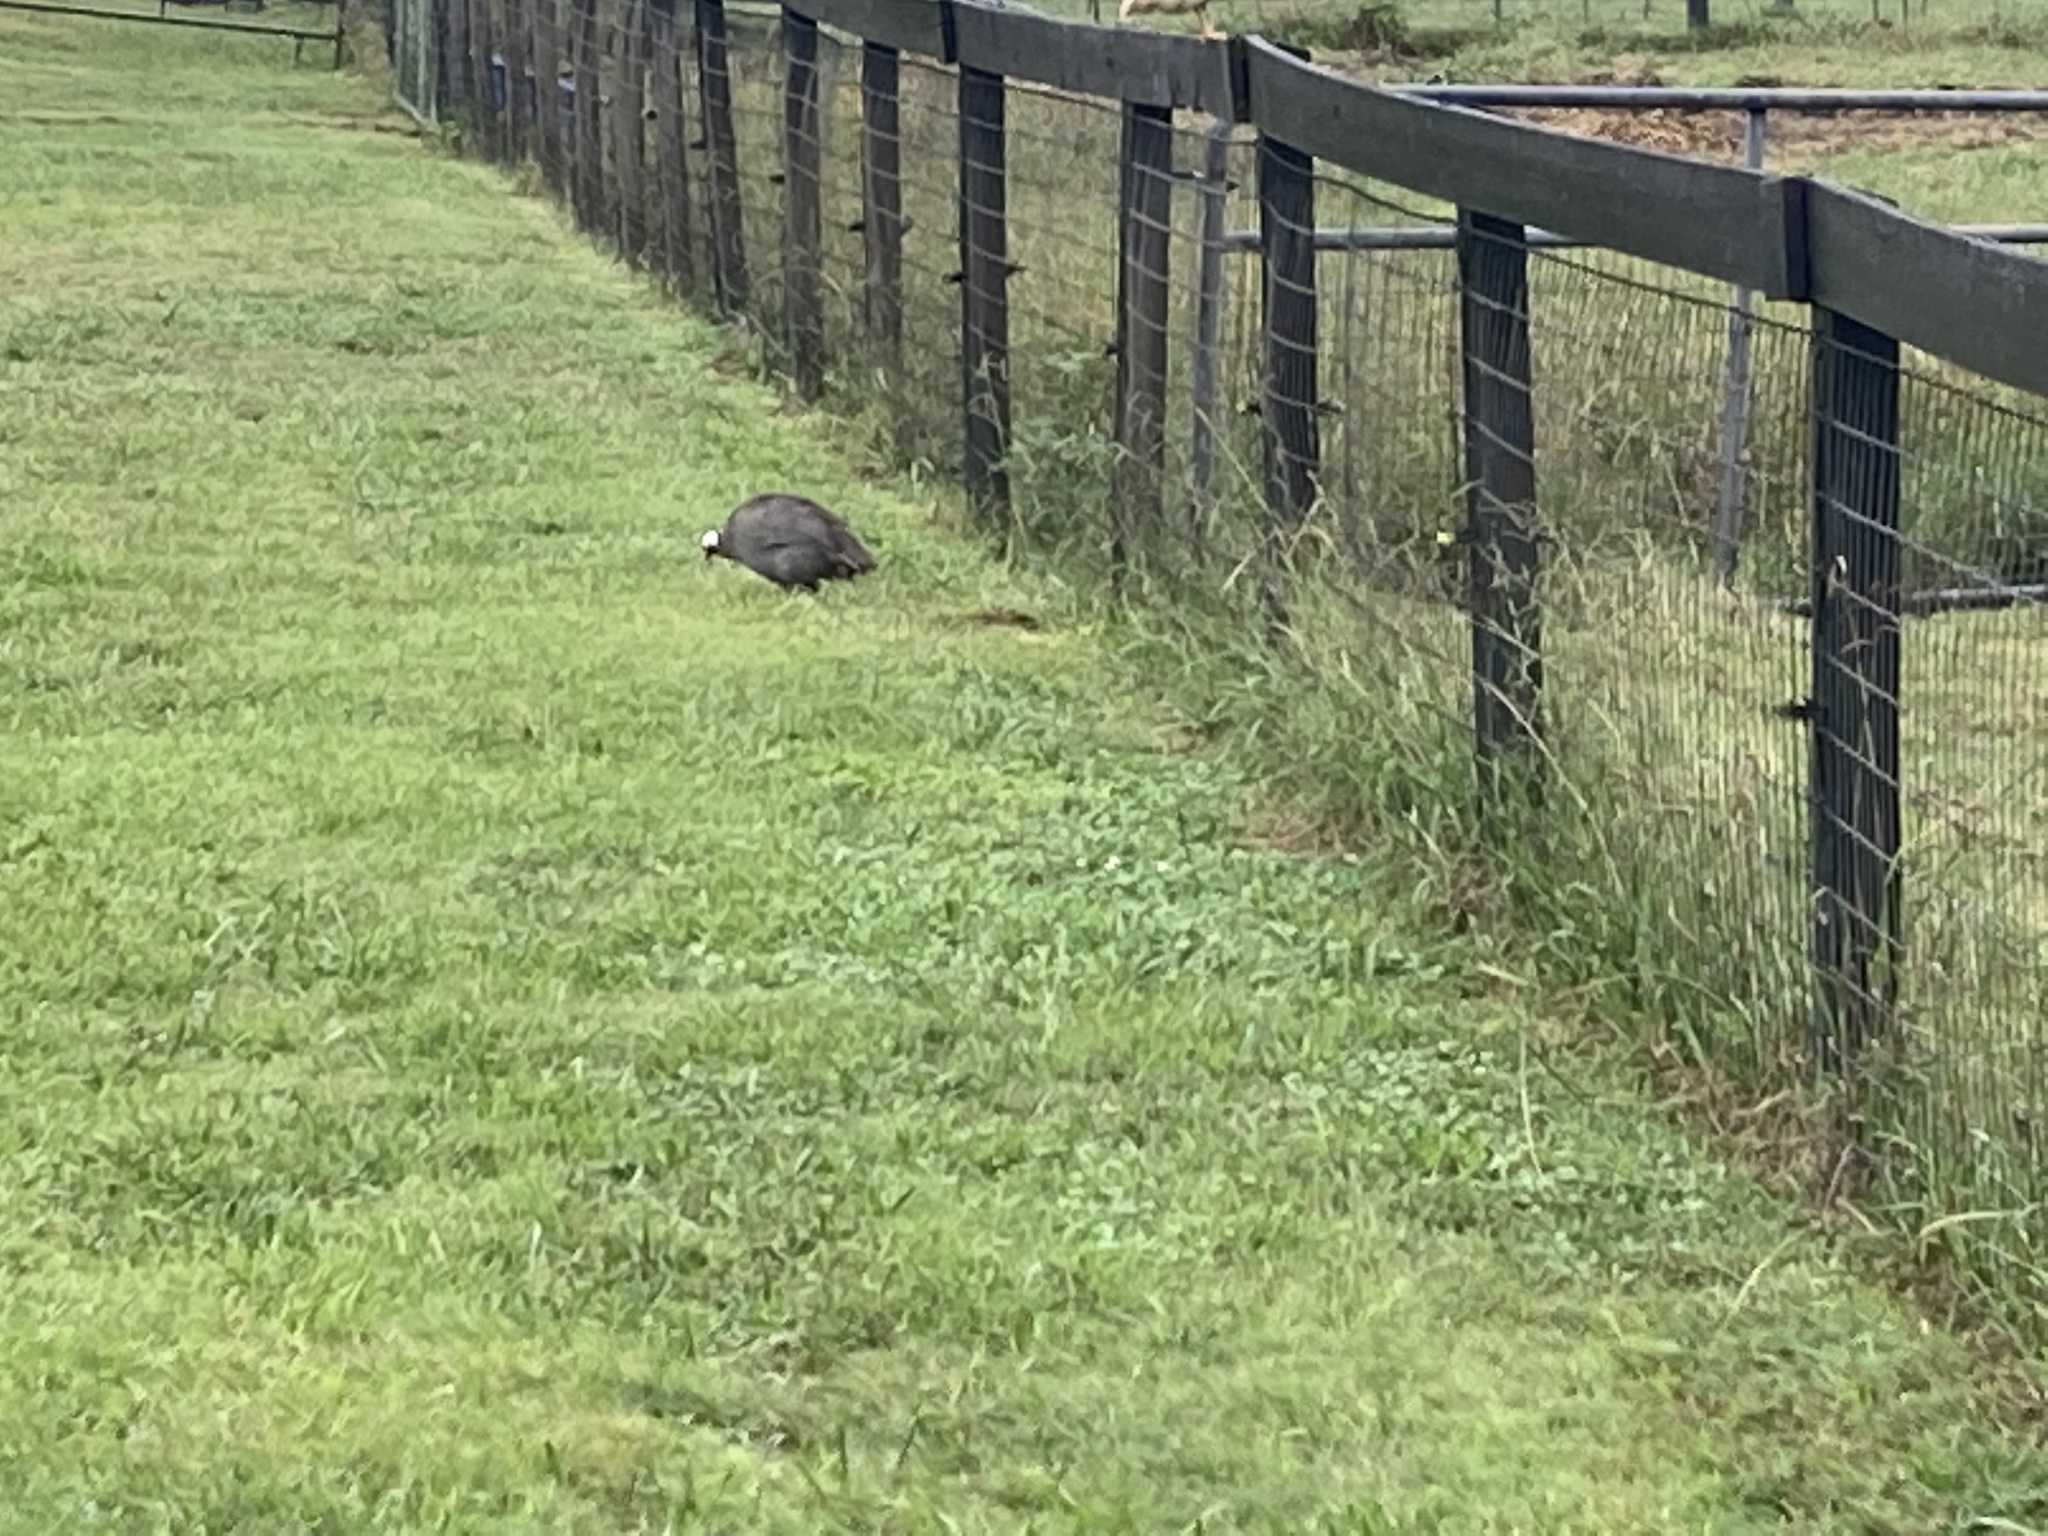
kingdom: Animalia
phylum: Chordata
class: Aves
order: Galliformes
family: Numididae
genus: Numida
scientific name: Numida meleagris
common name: Helmeted guineafowl
